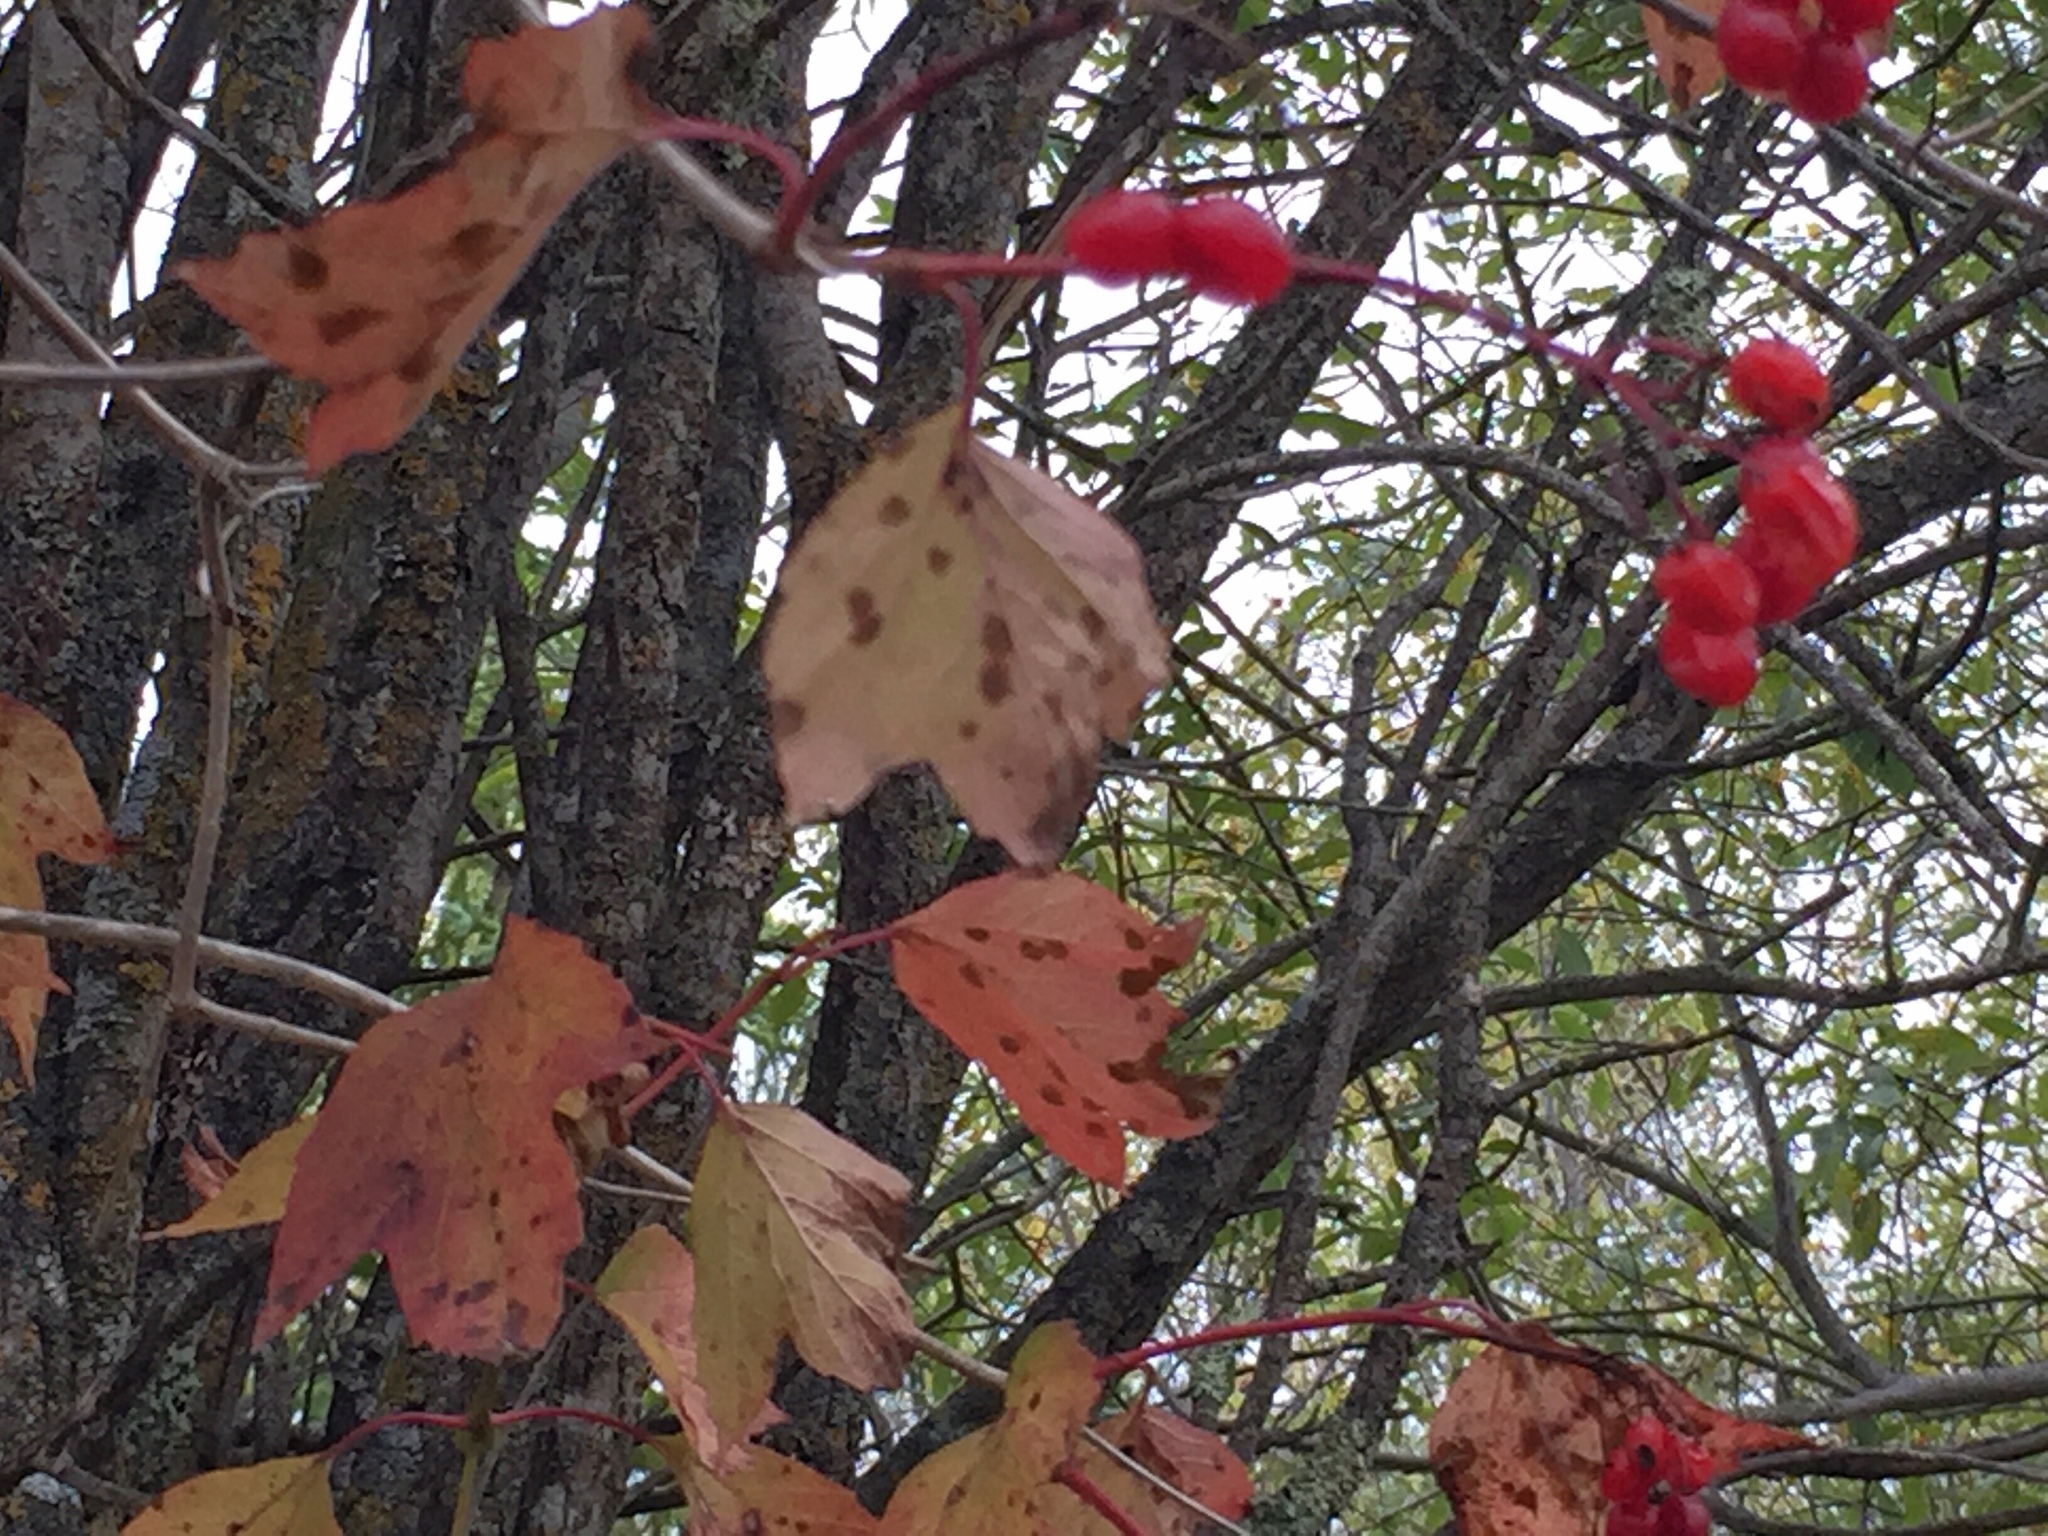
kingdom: Plantae
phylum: Tracheophyta
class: Magnoliopsida
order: Dipsacales
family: Viburnaceae
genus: Viburnum
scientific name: Viburnum trilobum
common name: American cranberrybush
